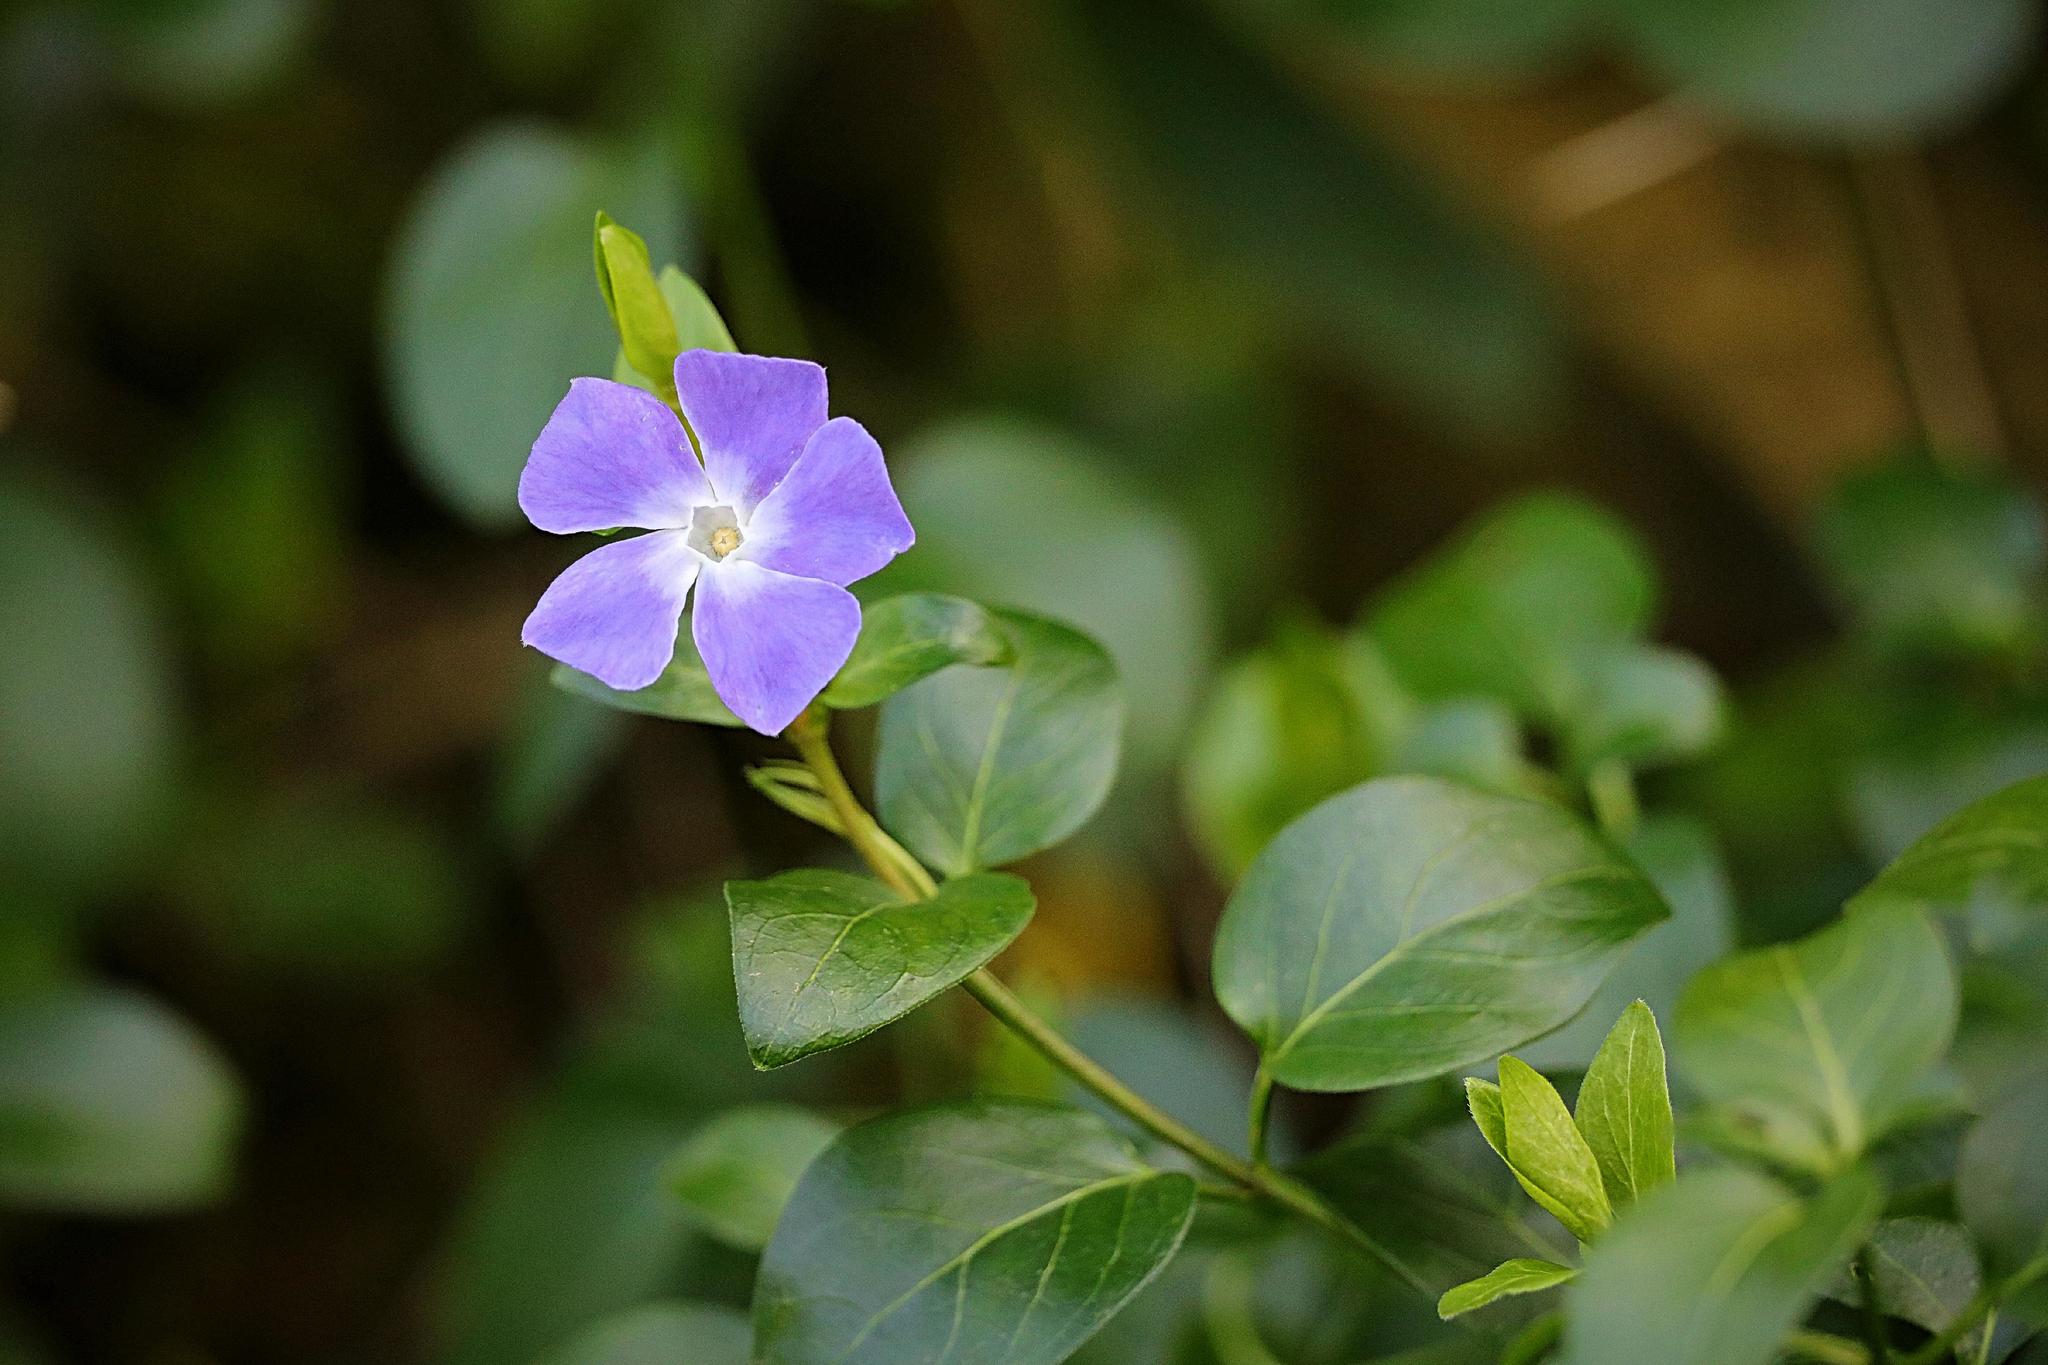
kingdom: Plantae
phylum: Tracheophyta
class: Magnoliopsida
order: Gentianales
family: Apocynaceae
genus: Vinca
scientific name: Vinca major
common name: Greater periwinkle
